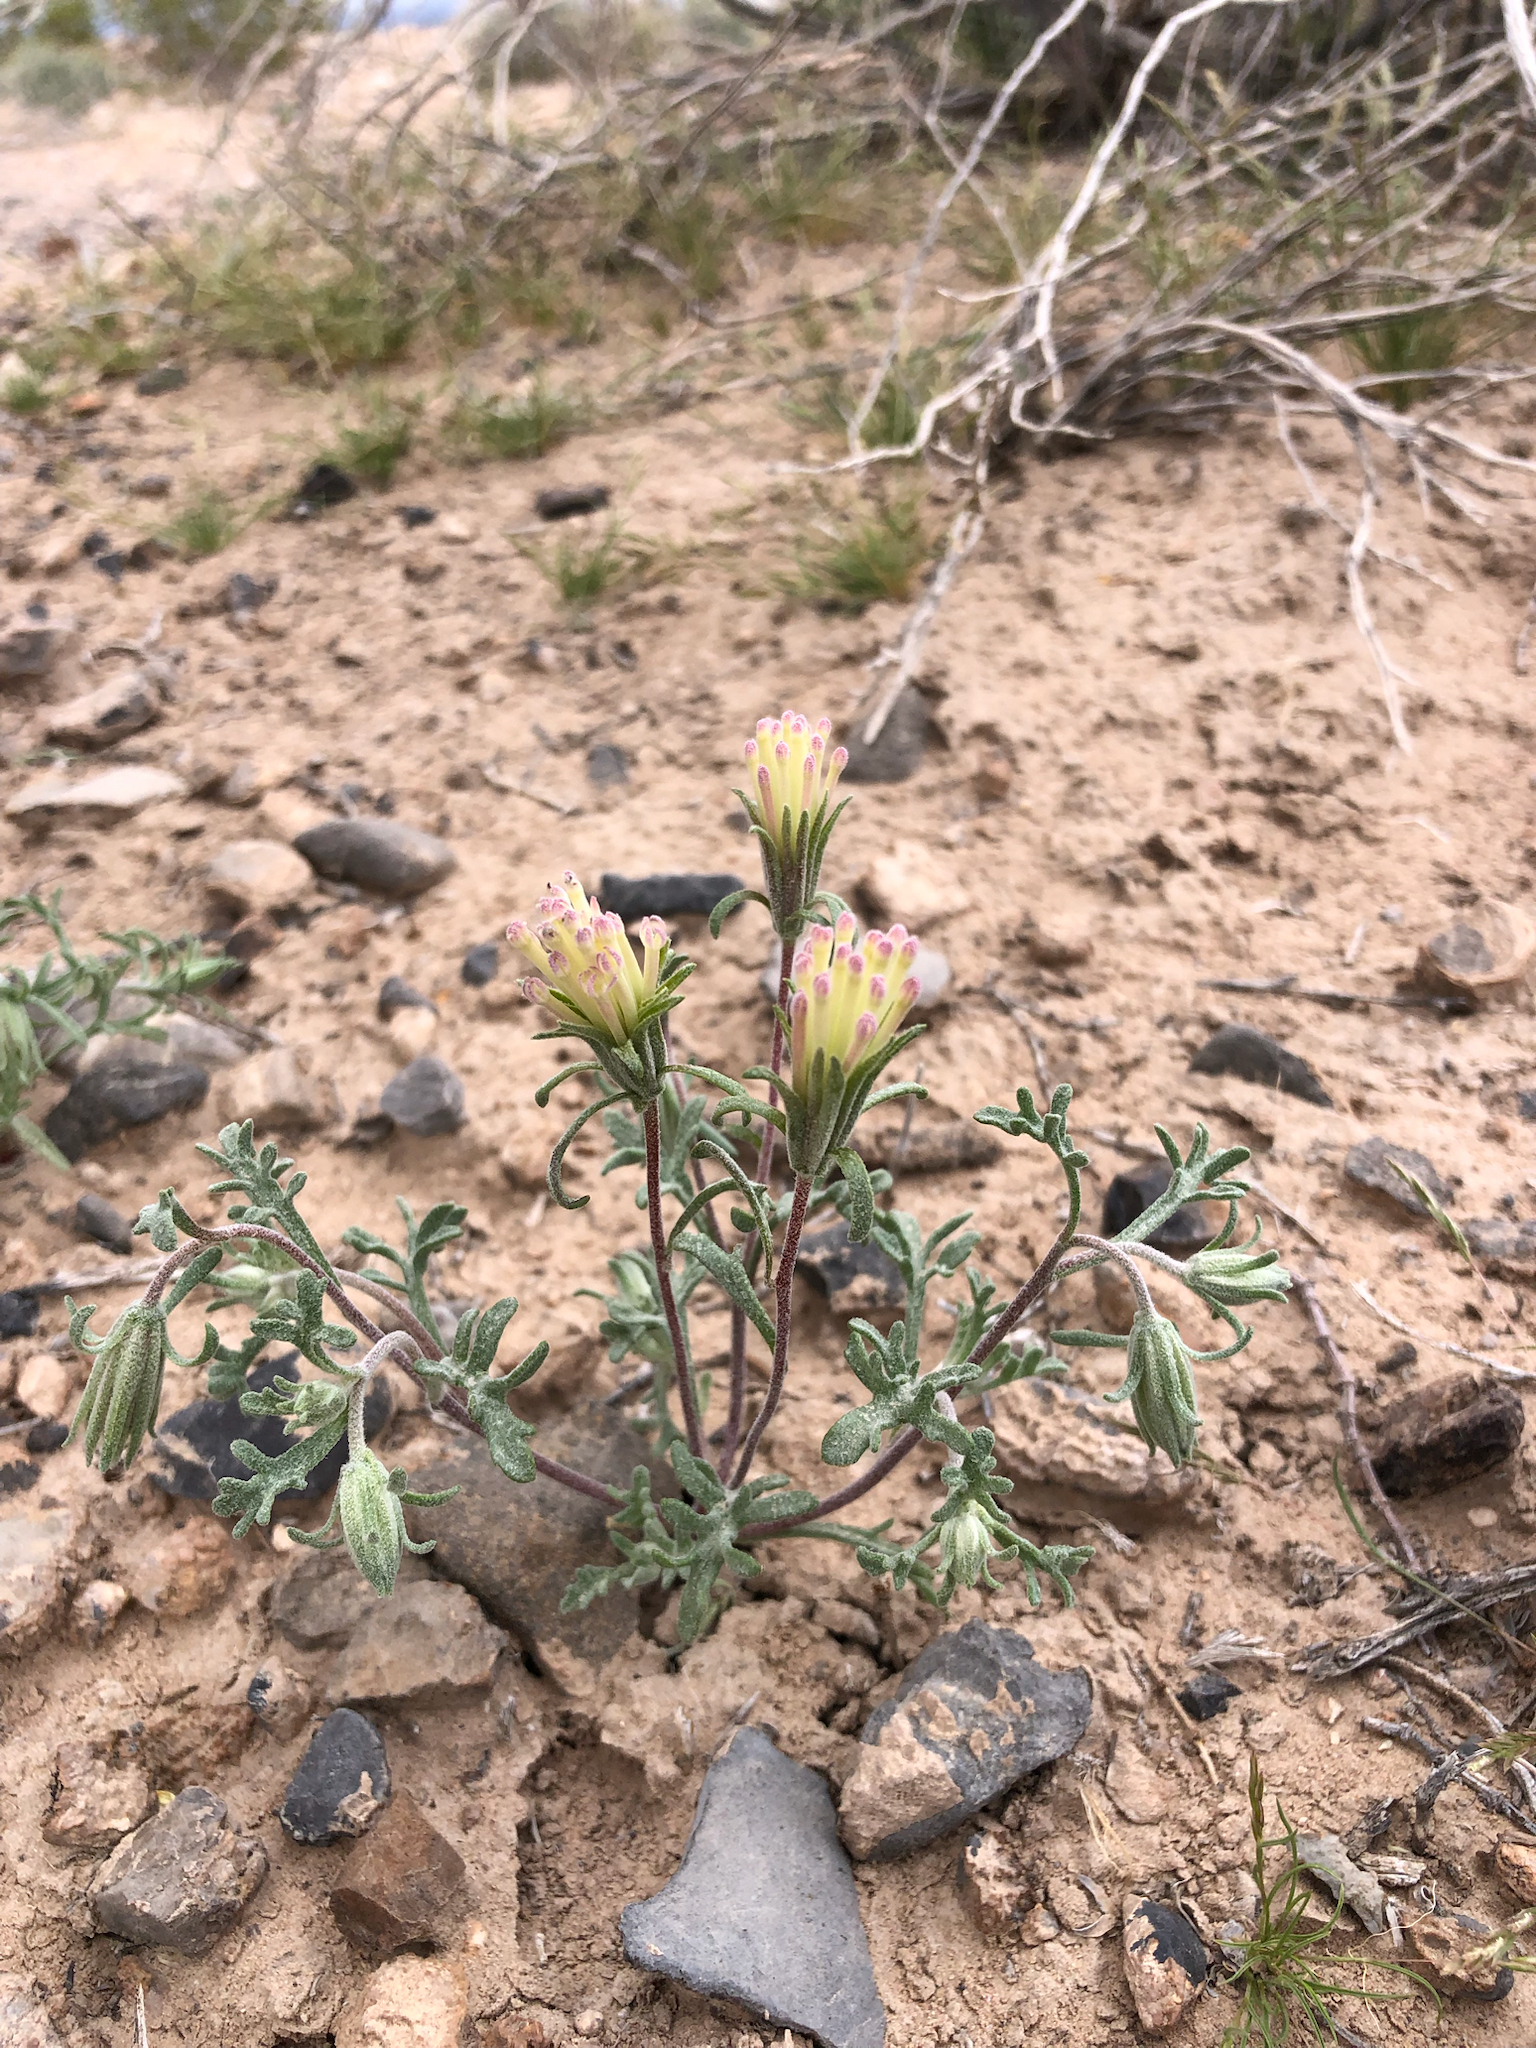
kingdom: Plantae
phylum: Tracheophyta
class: Magnoliopsida
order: Asterales
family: Asteraceae
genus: Chaenactis
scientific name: Chaenactis macrantha
